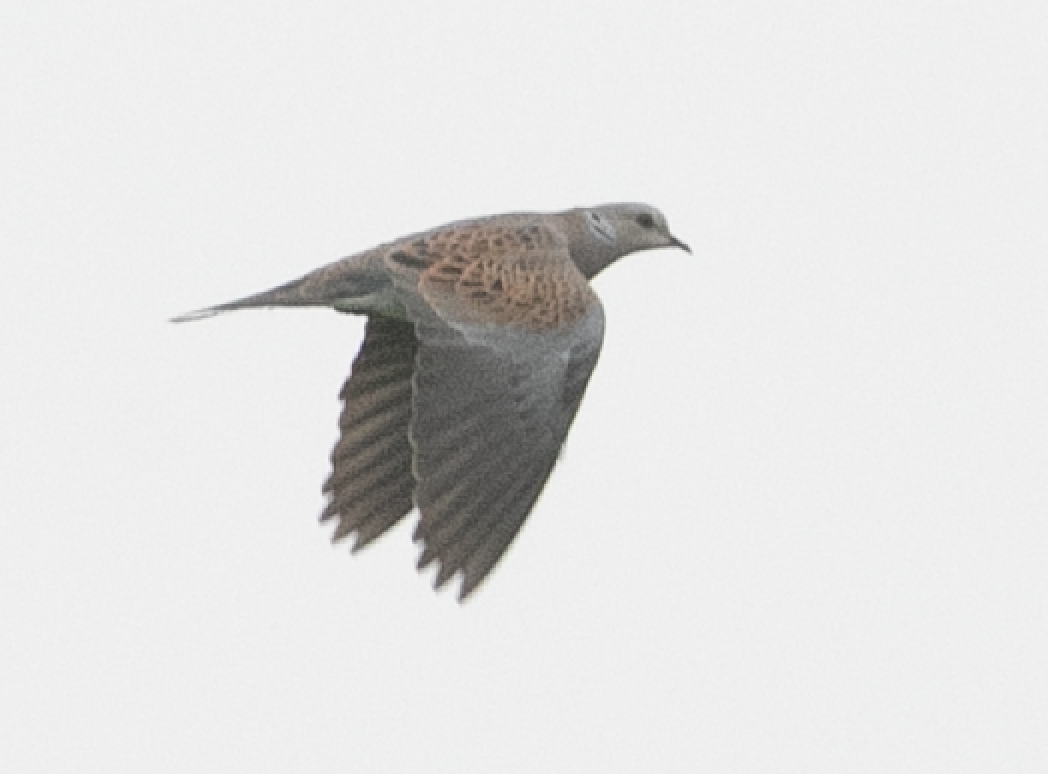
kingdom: Animalia
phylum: Chordata
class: Aves
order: Columbiformes
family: Columbidae
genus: Streptopelia
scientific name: Streptopelia turtur
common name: European turtle dove
